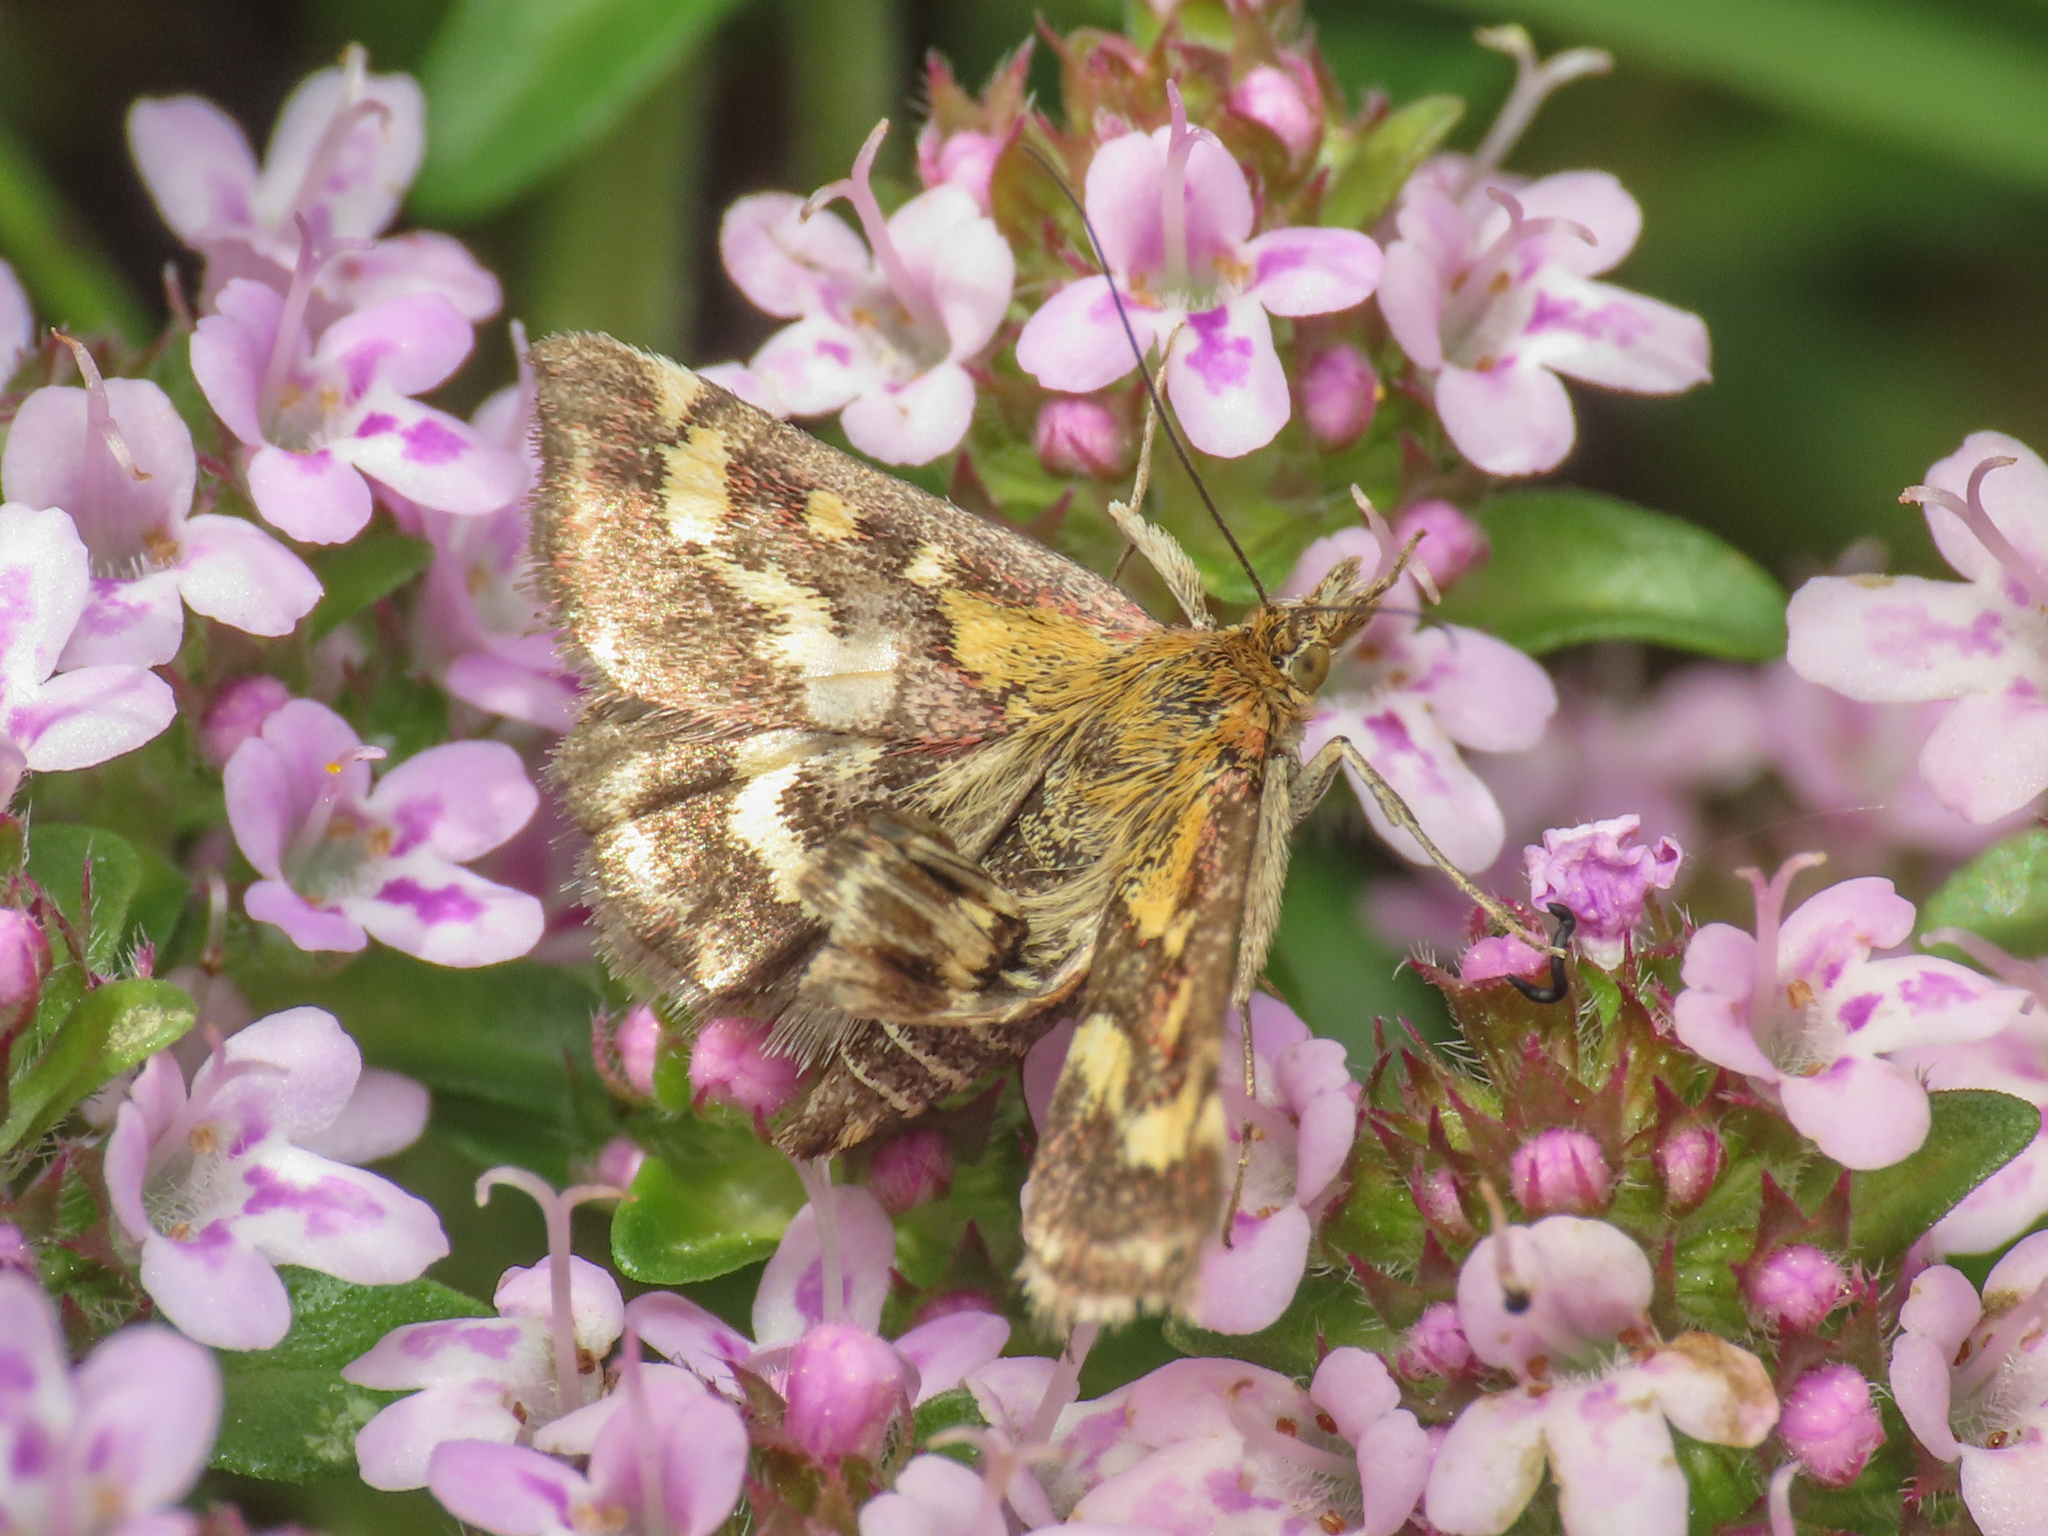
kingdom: Animalia
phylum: Arthropoda
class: Insecta
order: Lepidoptera
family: Crambidae
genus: Pyrausta
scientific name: Pyrausta purpuralis
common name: Common purple & gold
